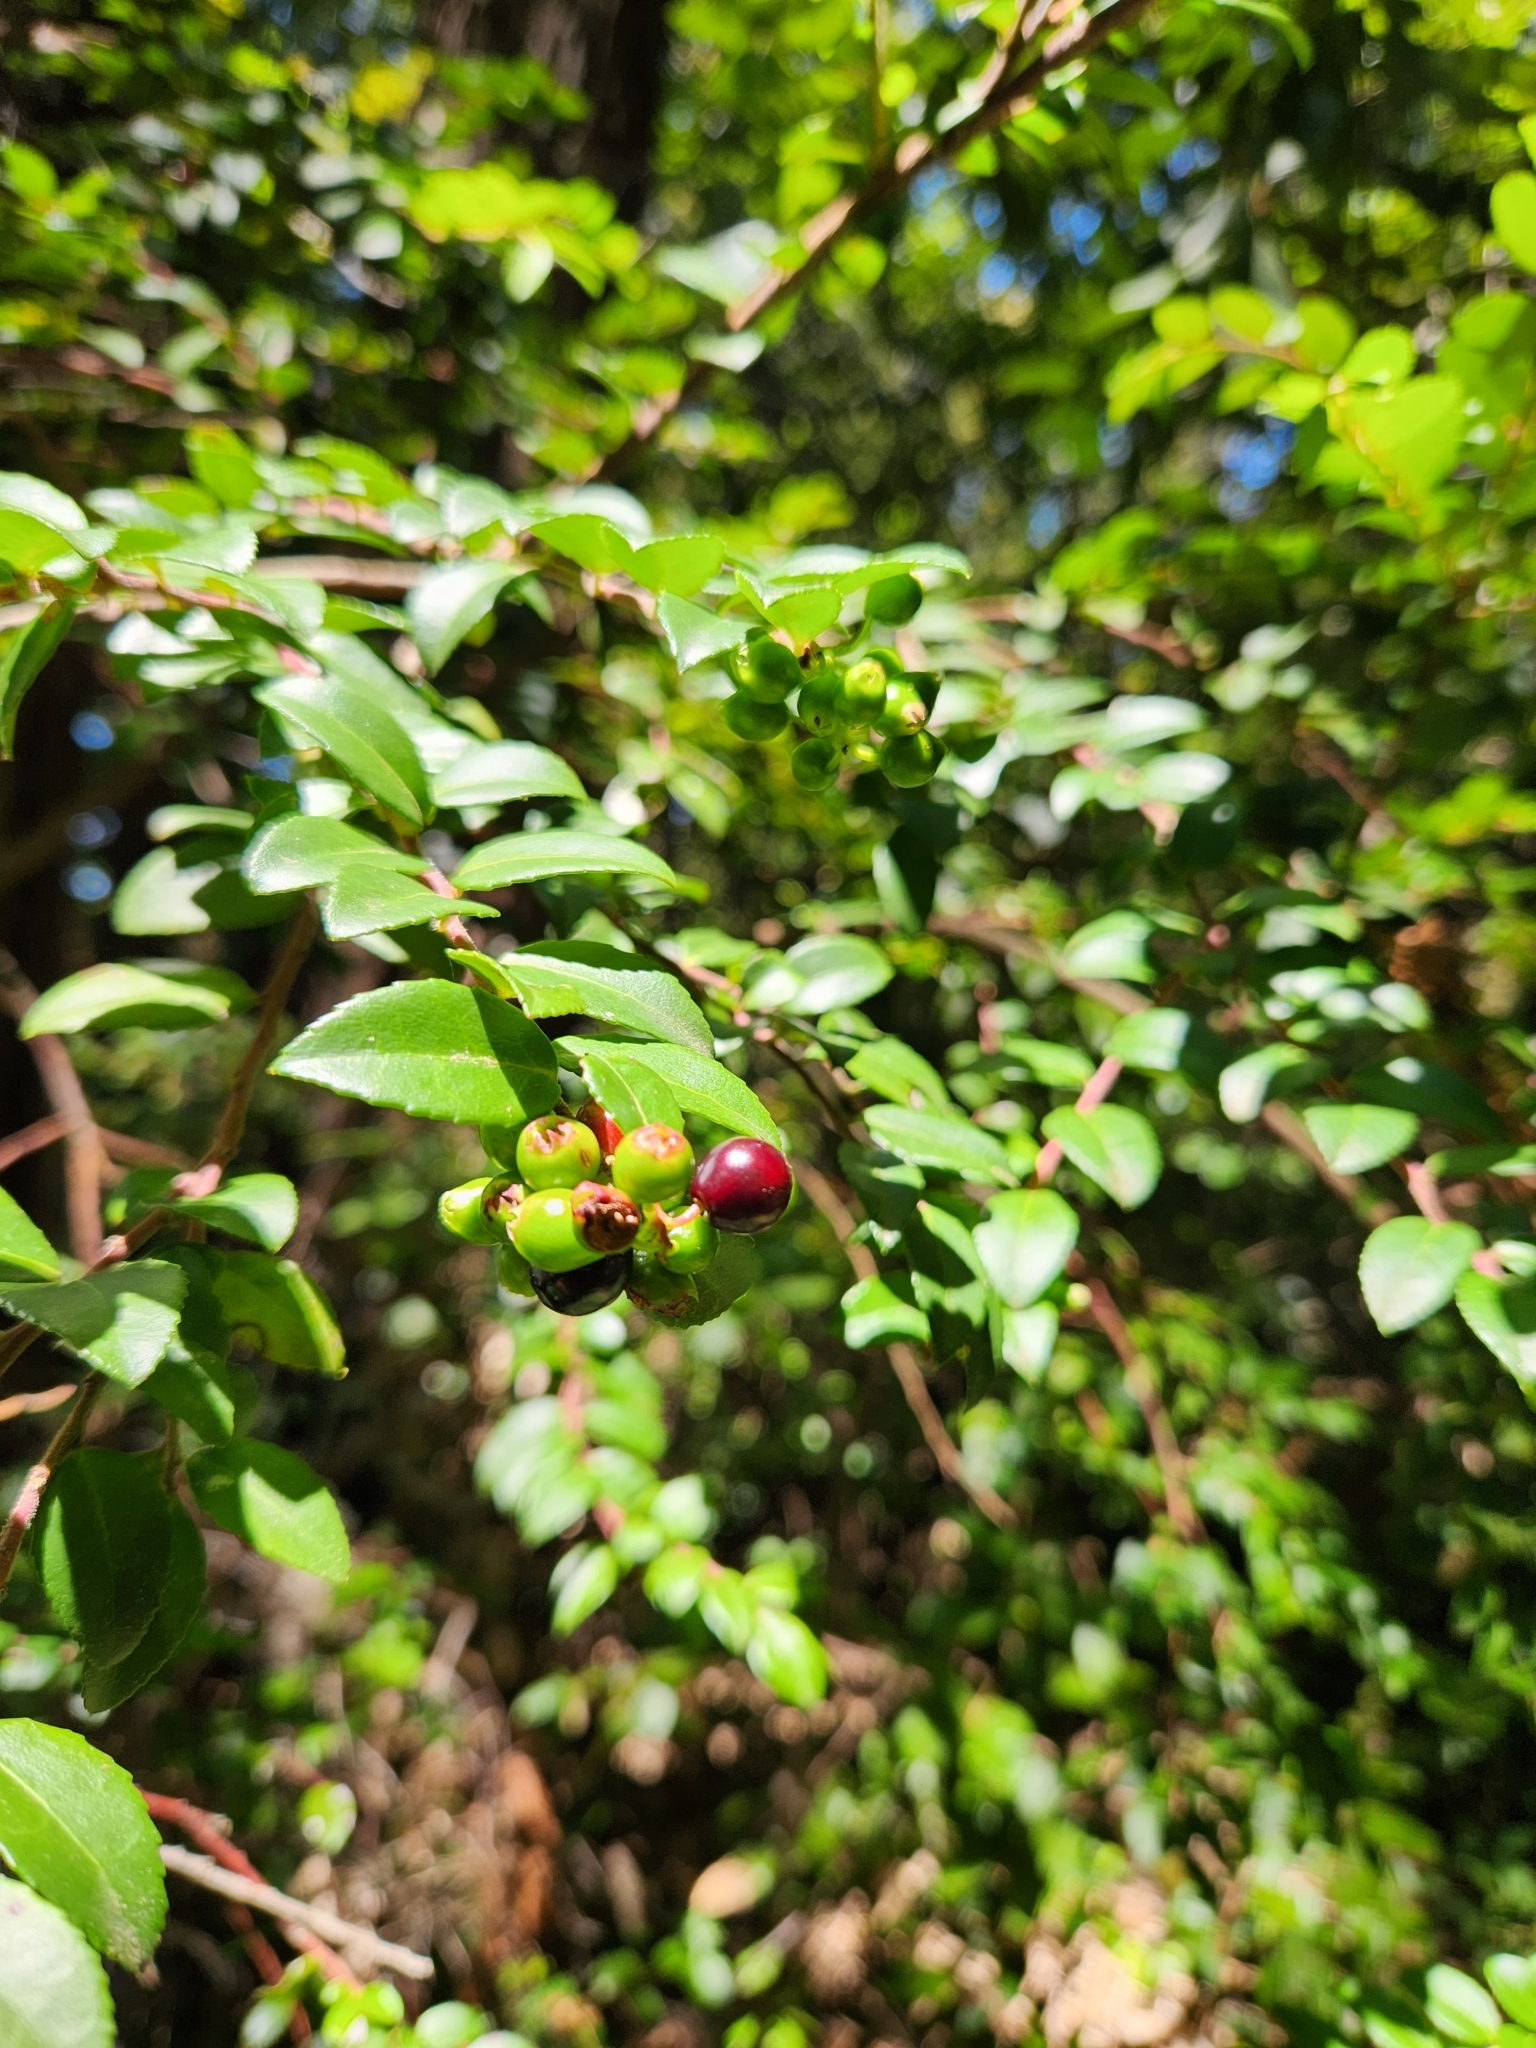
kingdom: Plantae
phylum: Tracheophyta
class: Magnoliopsida
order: Ericales
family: Ericaceae
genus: Vaccinium
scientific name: Vaccinium ovatum
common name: California-huckleberry
